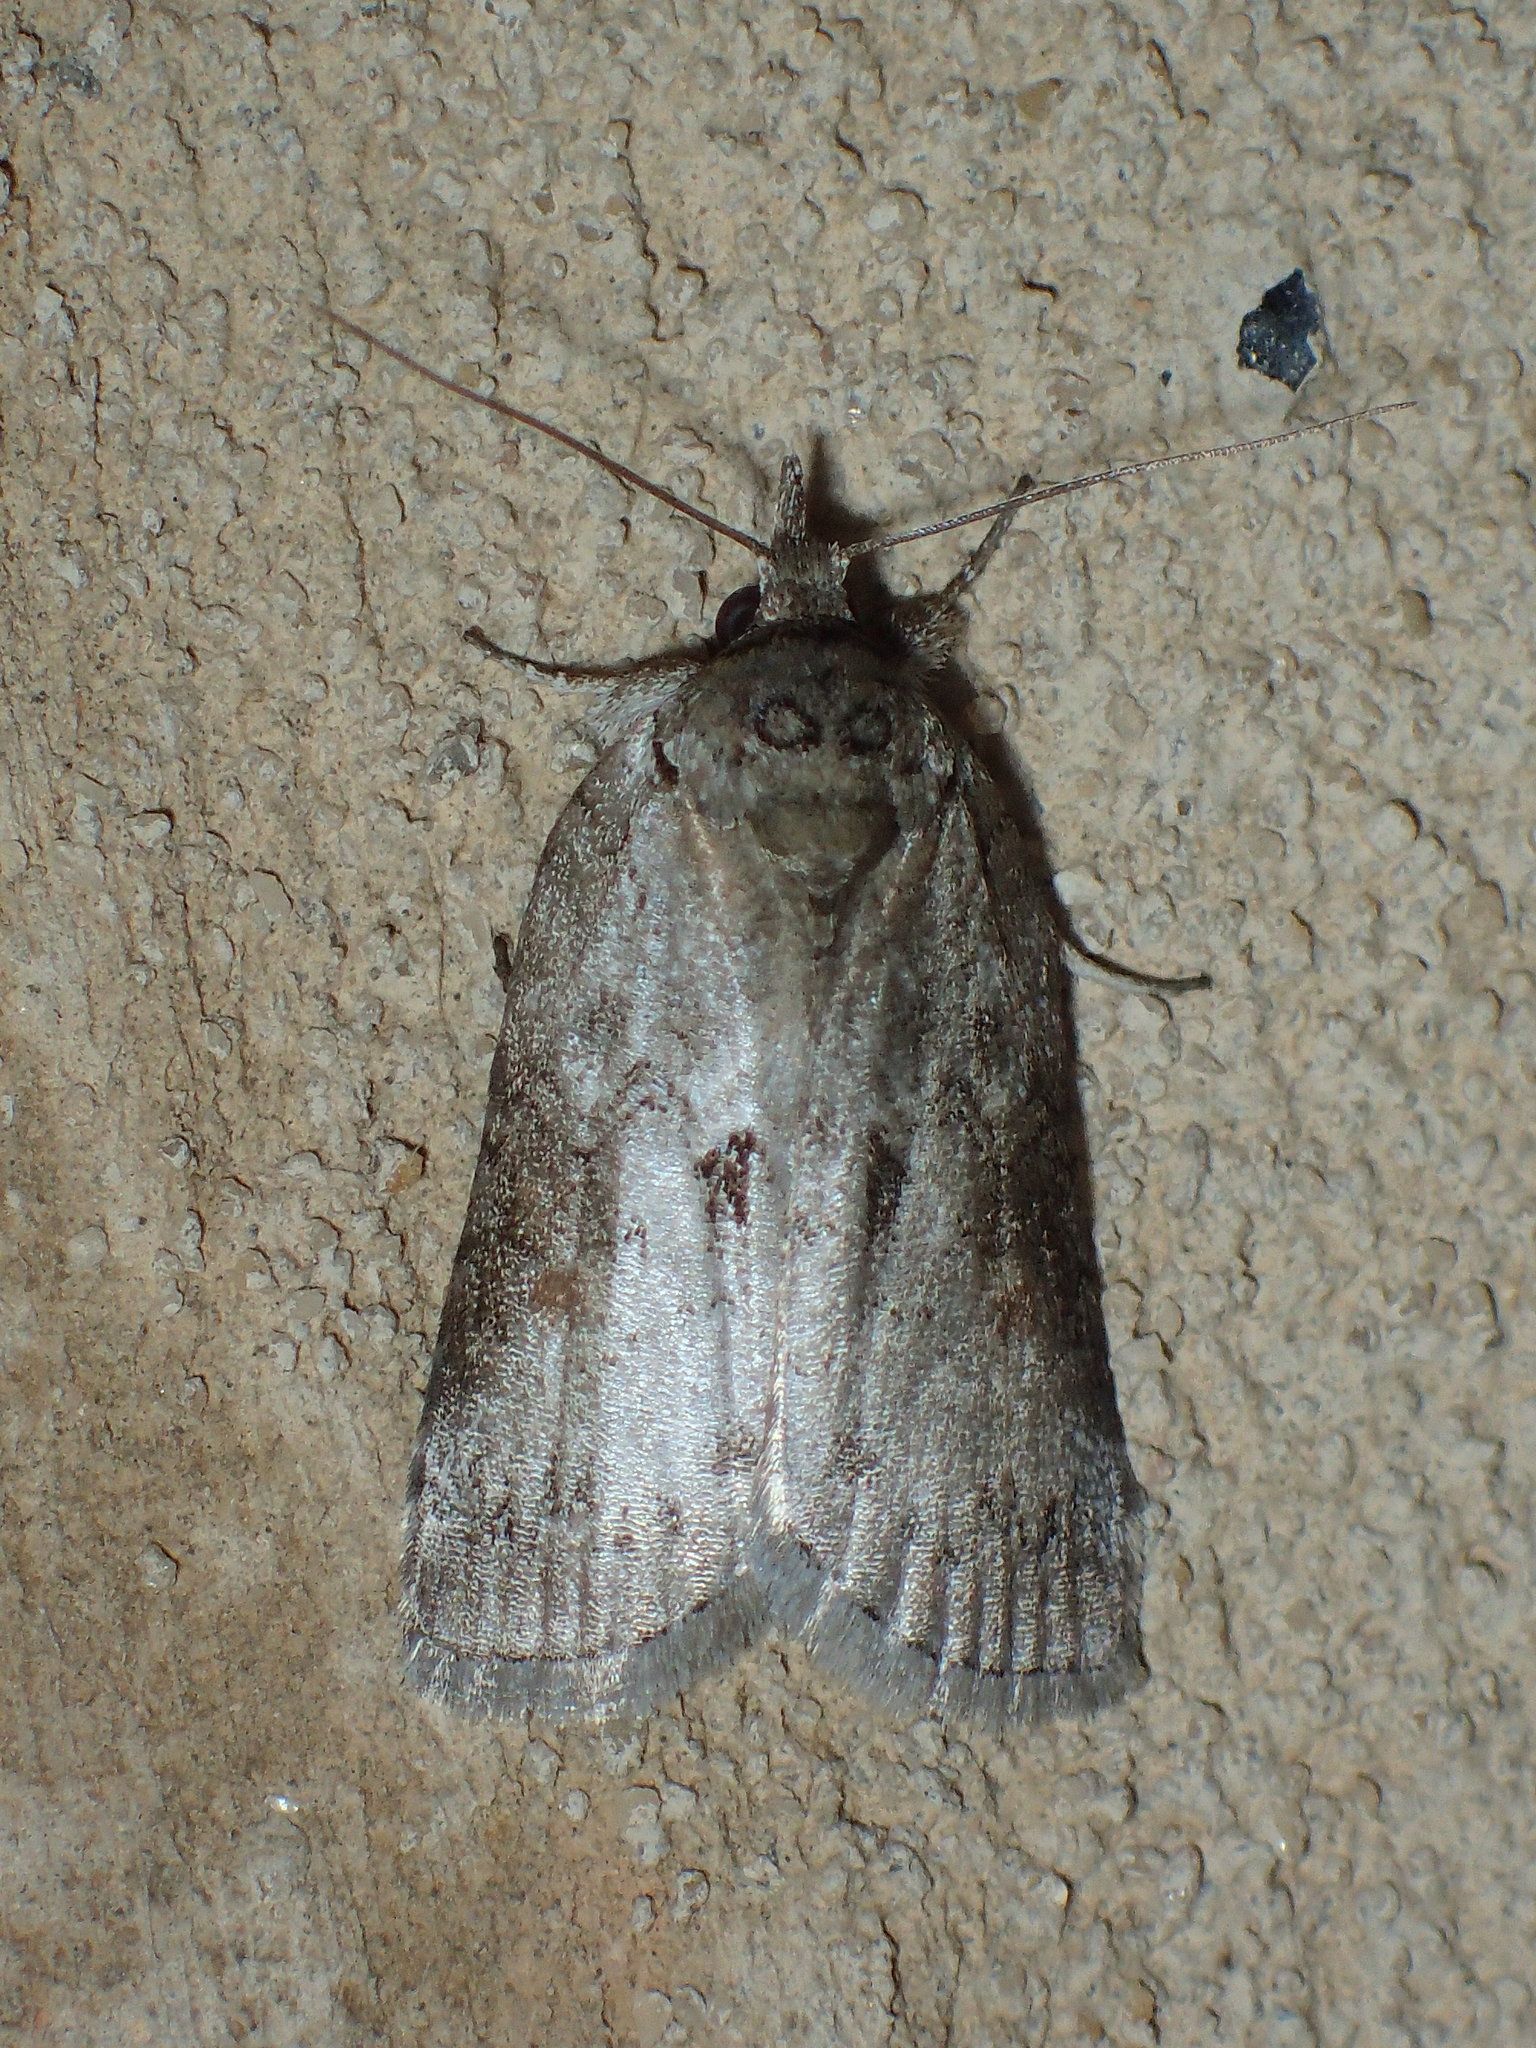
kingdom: Animalia
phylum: Arthropoda
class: Insecta
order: Lepidoptera
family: Nolidae
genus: Nycteola
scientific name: Nycteola metaspilella
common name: Forgotten frigid owlet
